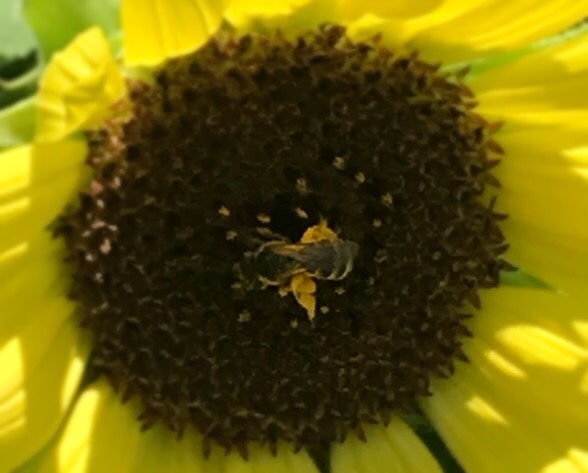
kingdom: Animalia
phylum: Arthropoda
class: Insecta
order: Hymenoptera
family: Halictidae
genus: Halictus
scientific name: Halictus ligatus
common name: Ligated furrow bee
